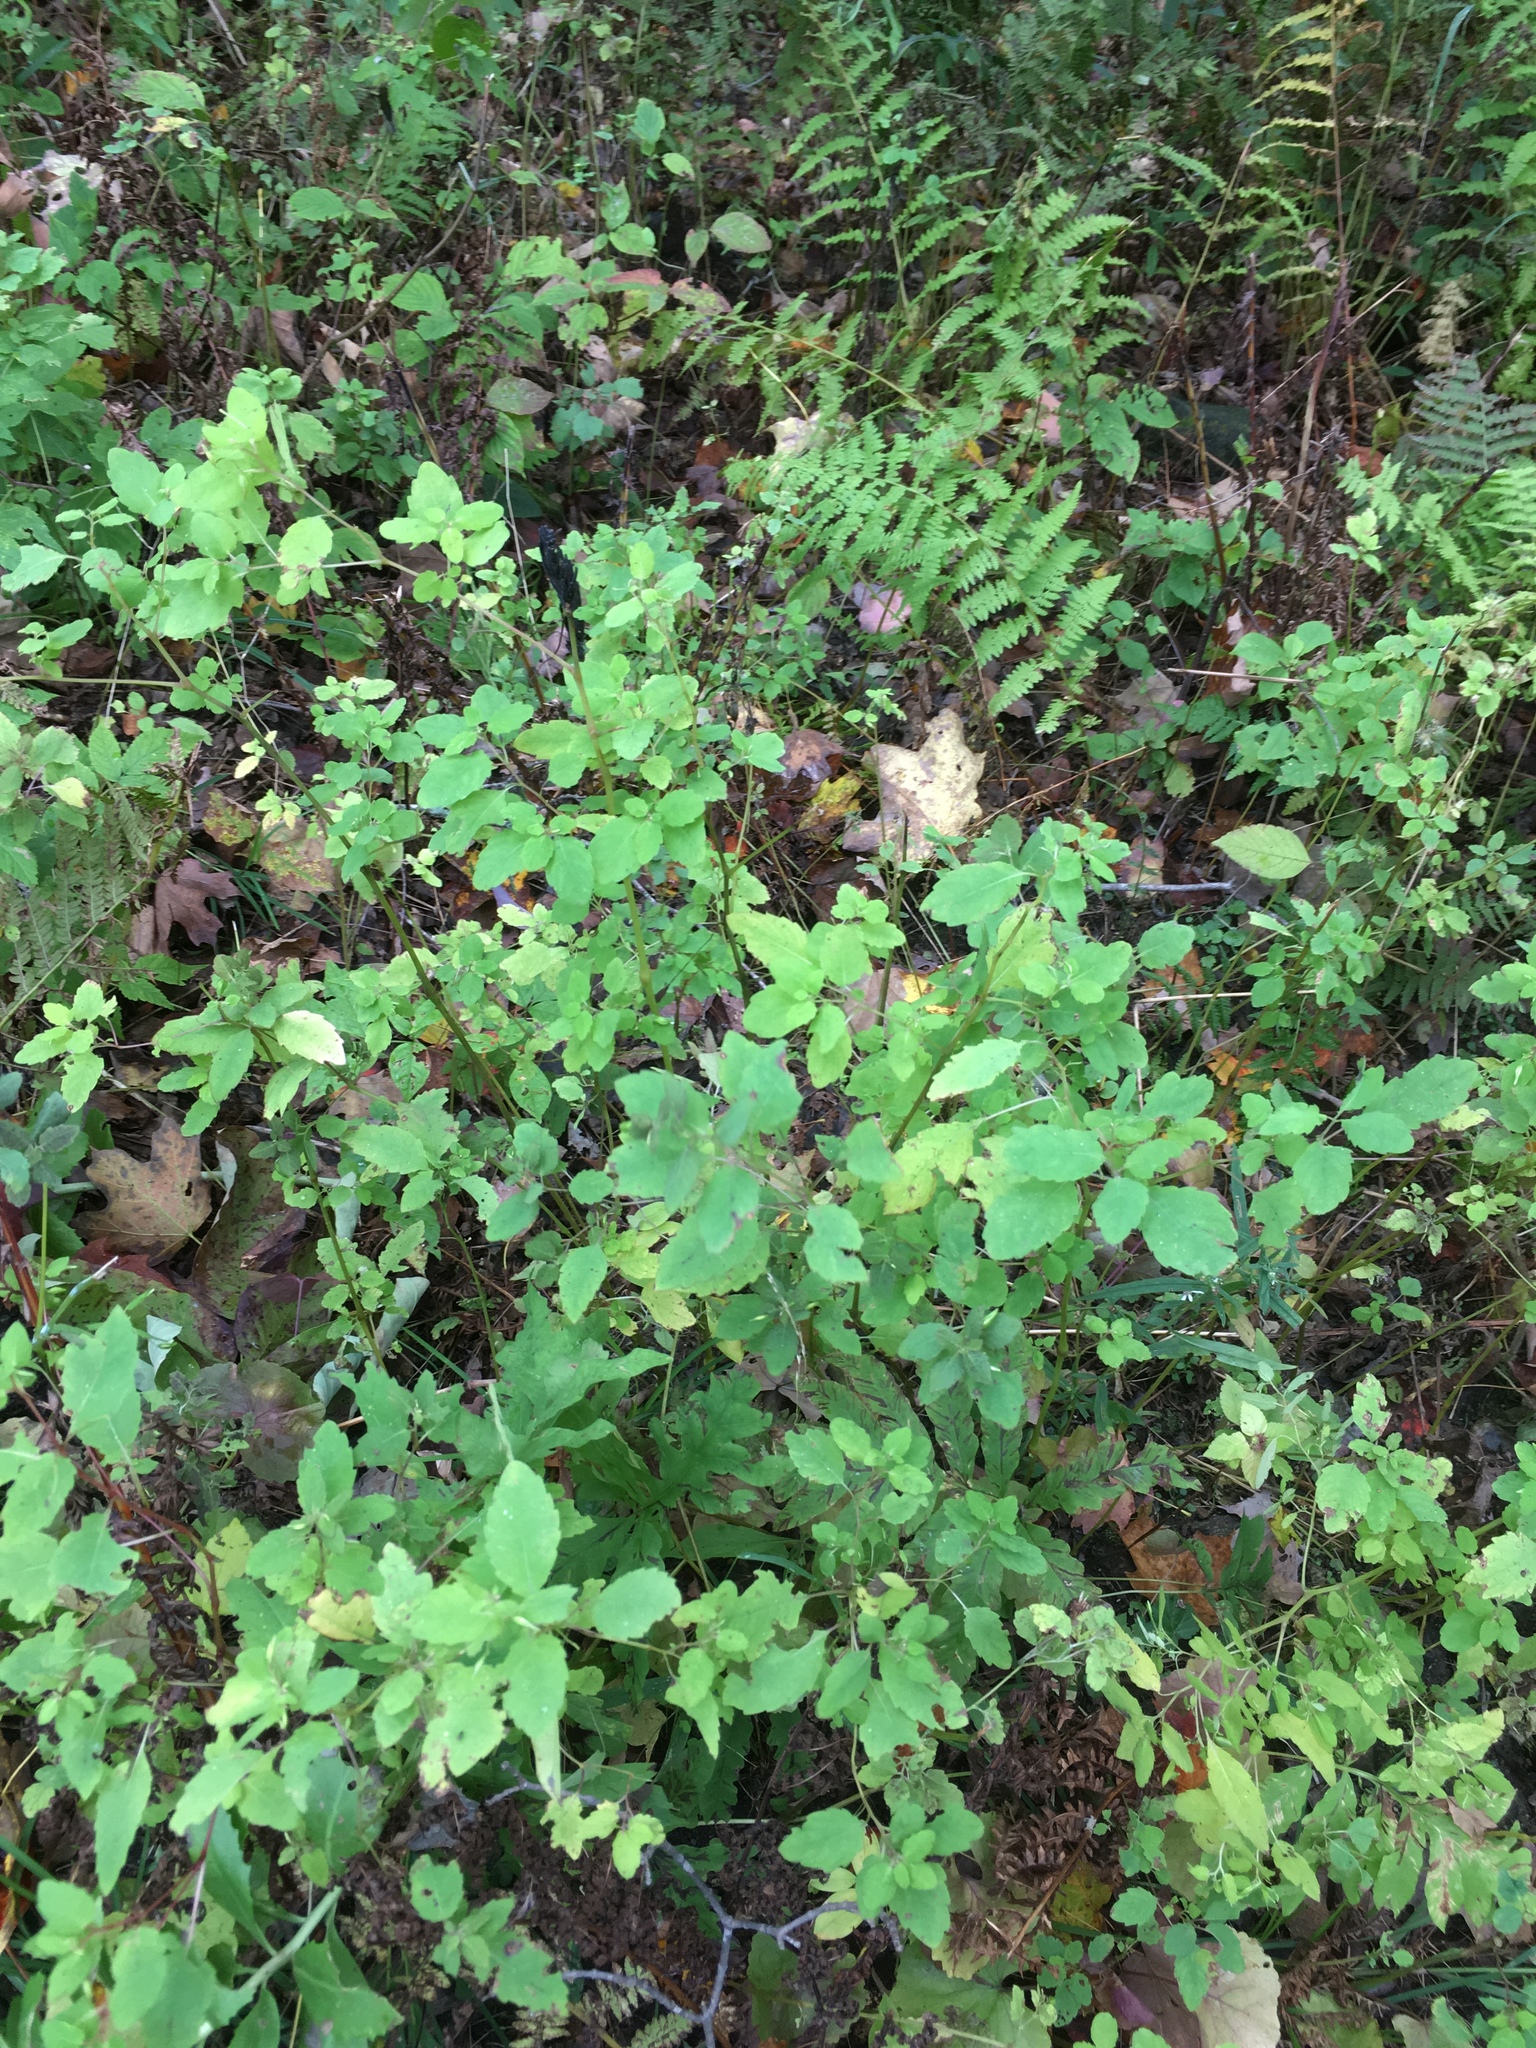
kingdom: Plantae
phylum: Tracheophyta
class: Magnoliopsida
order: Ericales
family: Balsaminaceae
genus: Impatiens
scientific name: Impatiens capensis
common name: Orange balsam
